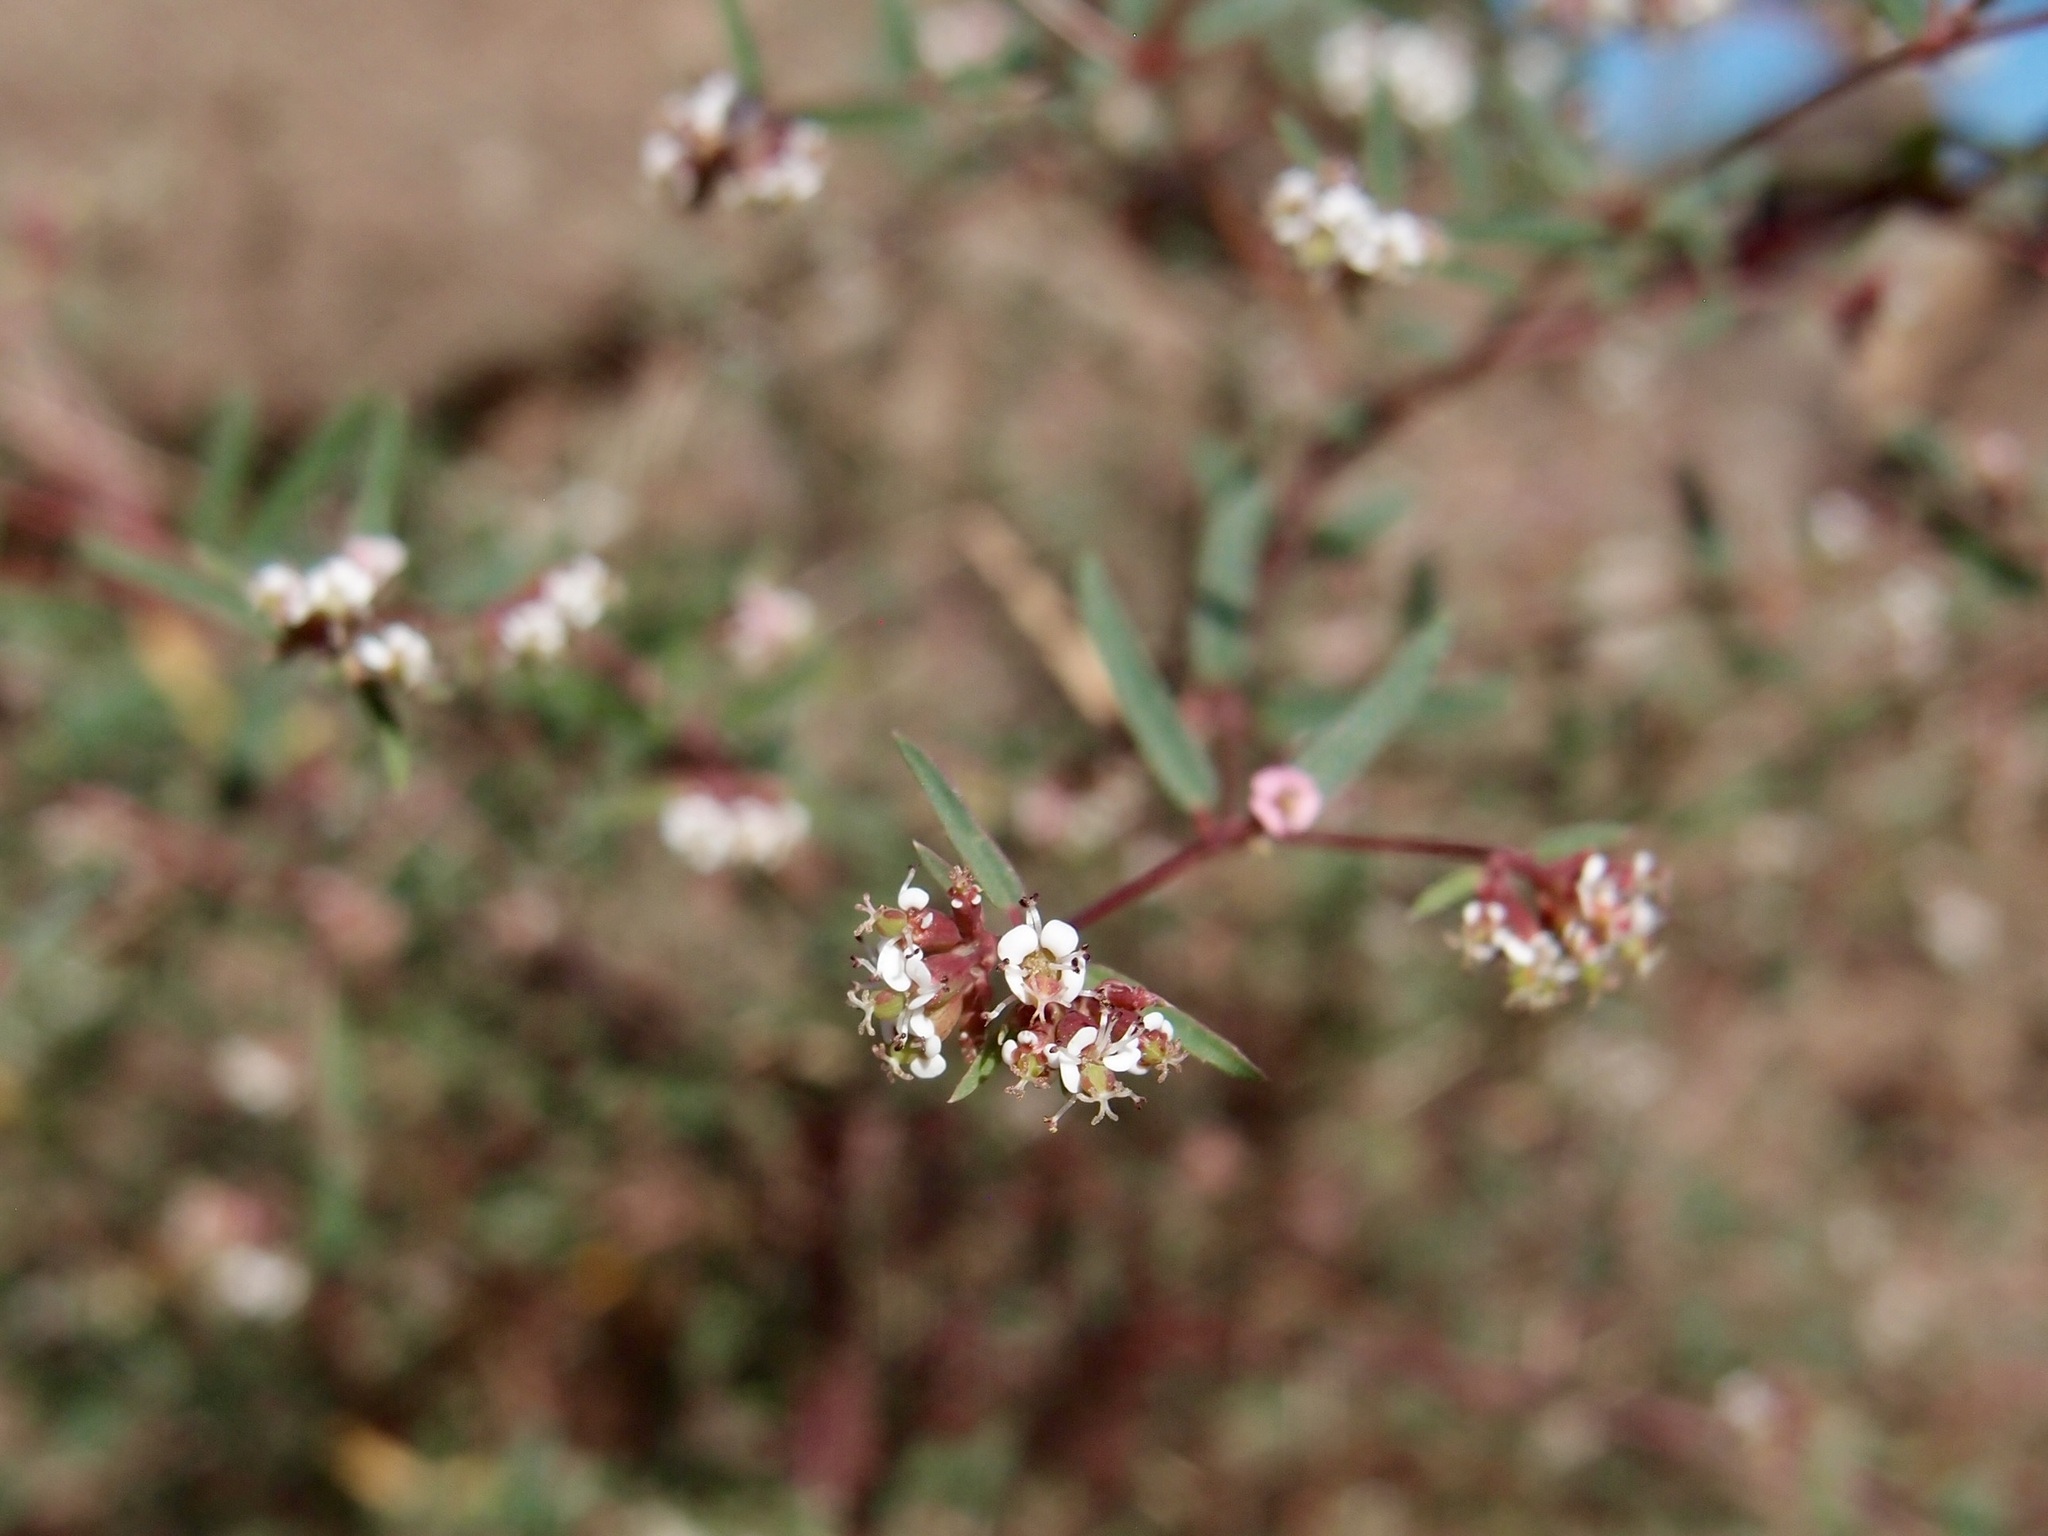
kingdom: Plantae
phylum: Tracheophyta
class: Magnoliopsida
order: Malpighiales
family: Euphorbiaceae
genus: Euphorbia
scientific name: Euphorbia capitellata
